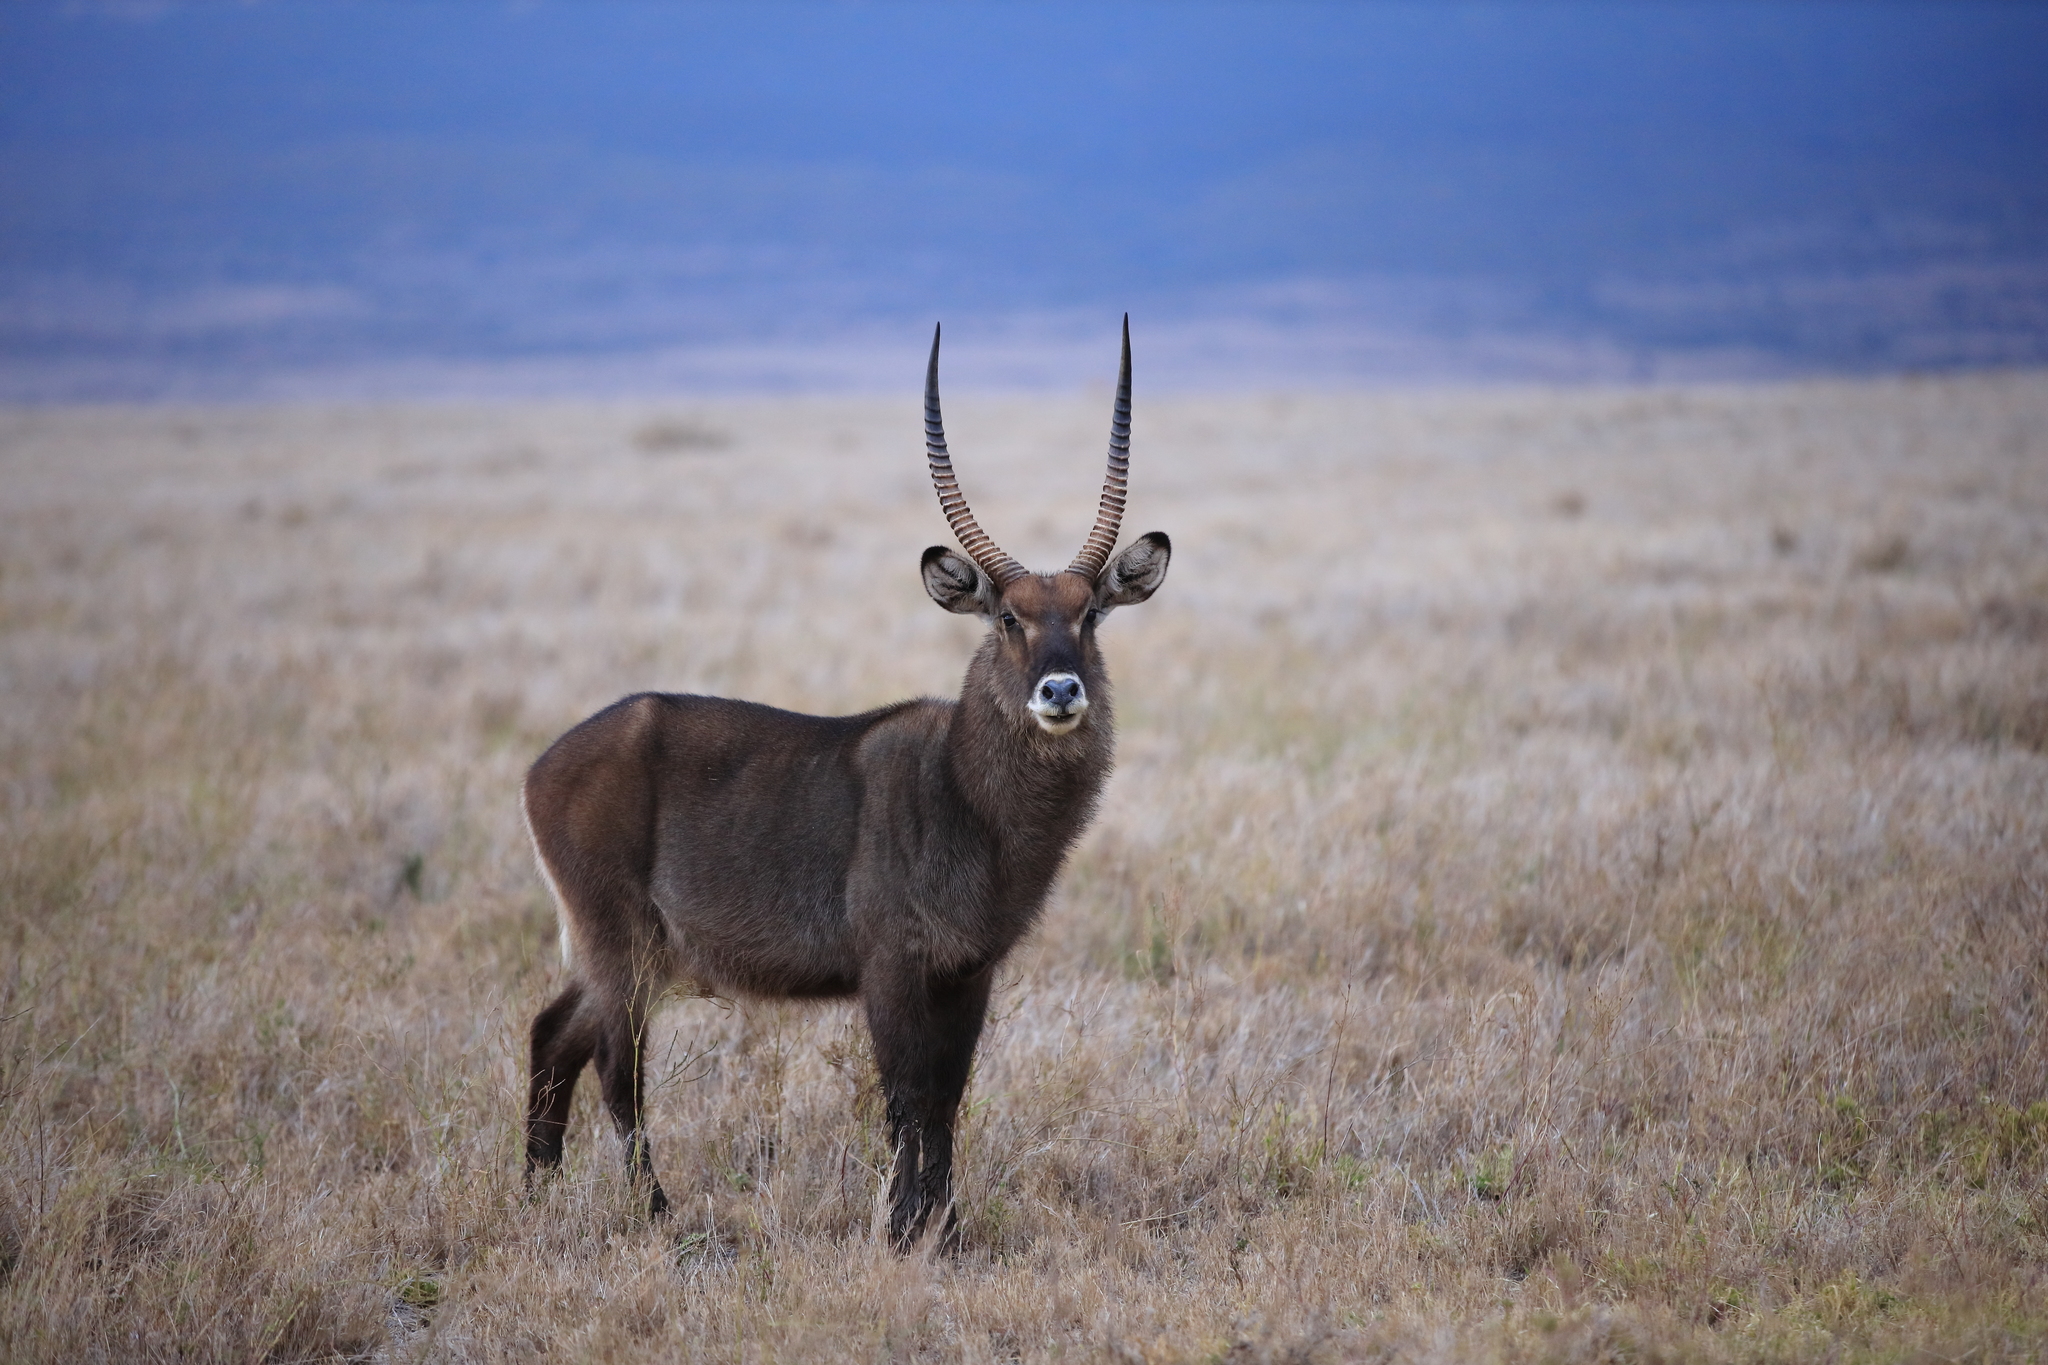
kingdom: Animalia
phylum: Chordata
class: Mammalia
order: Artiodactyla
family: Bovidae
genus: Kobus
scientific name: Kobus ellipsiprymnus
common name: Waterbuck
